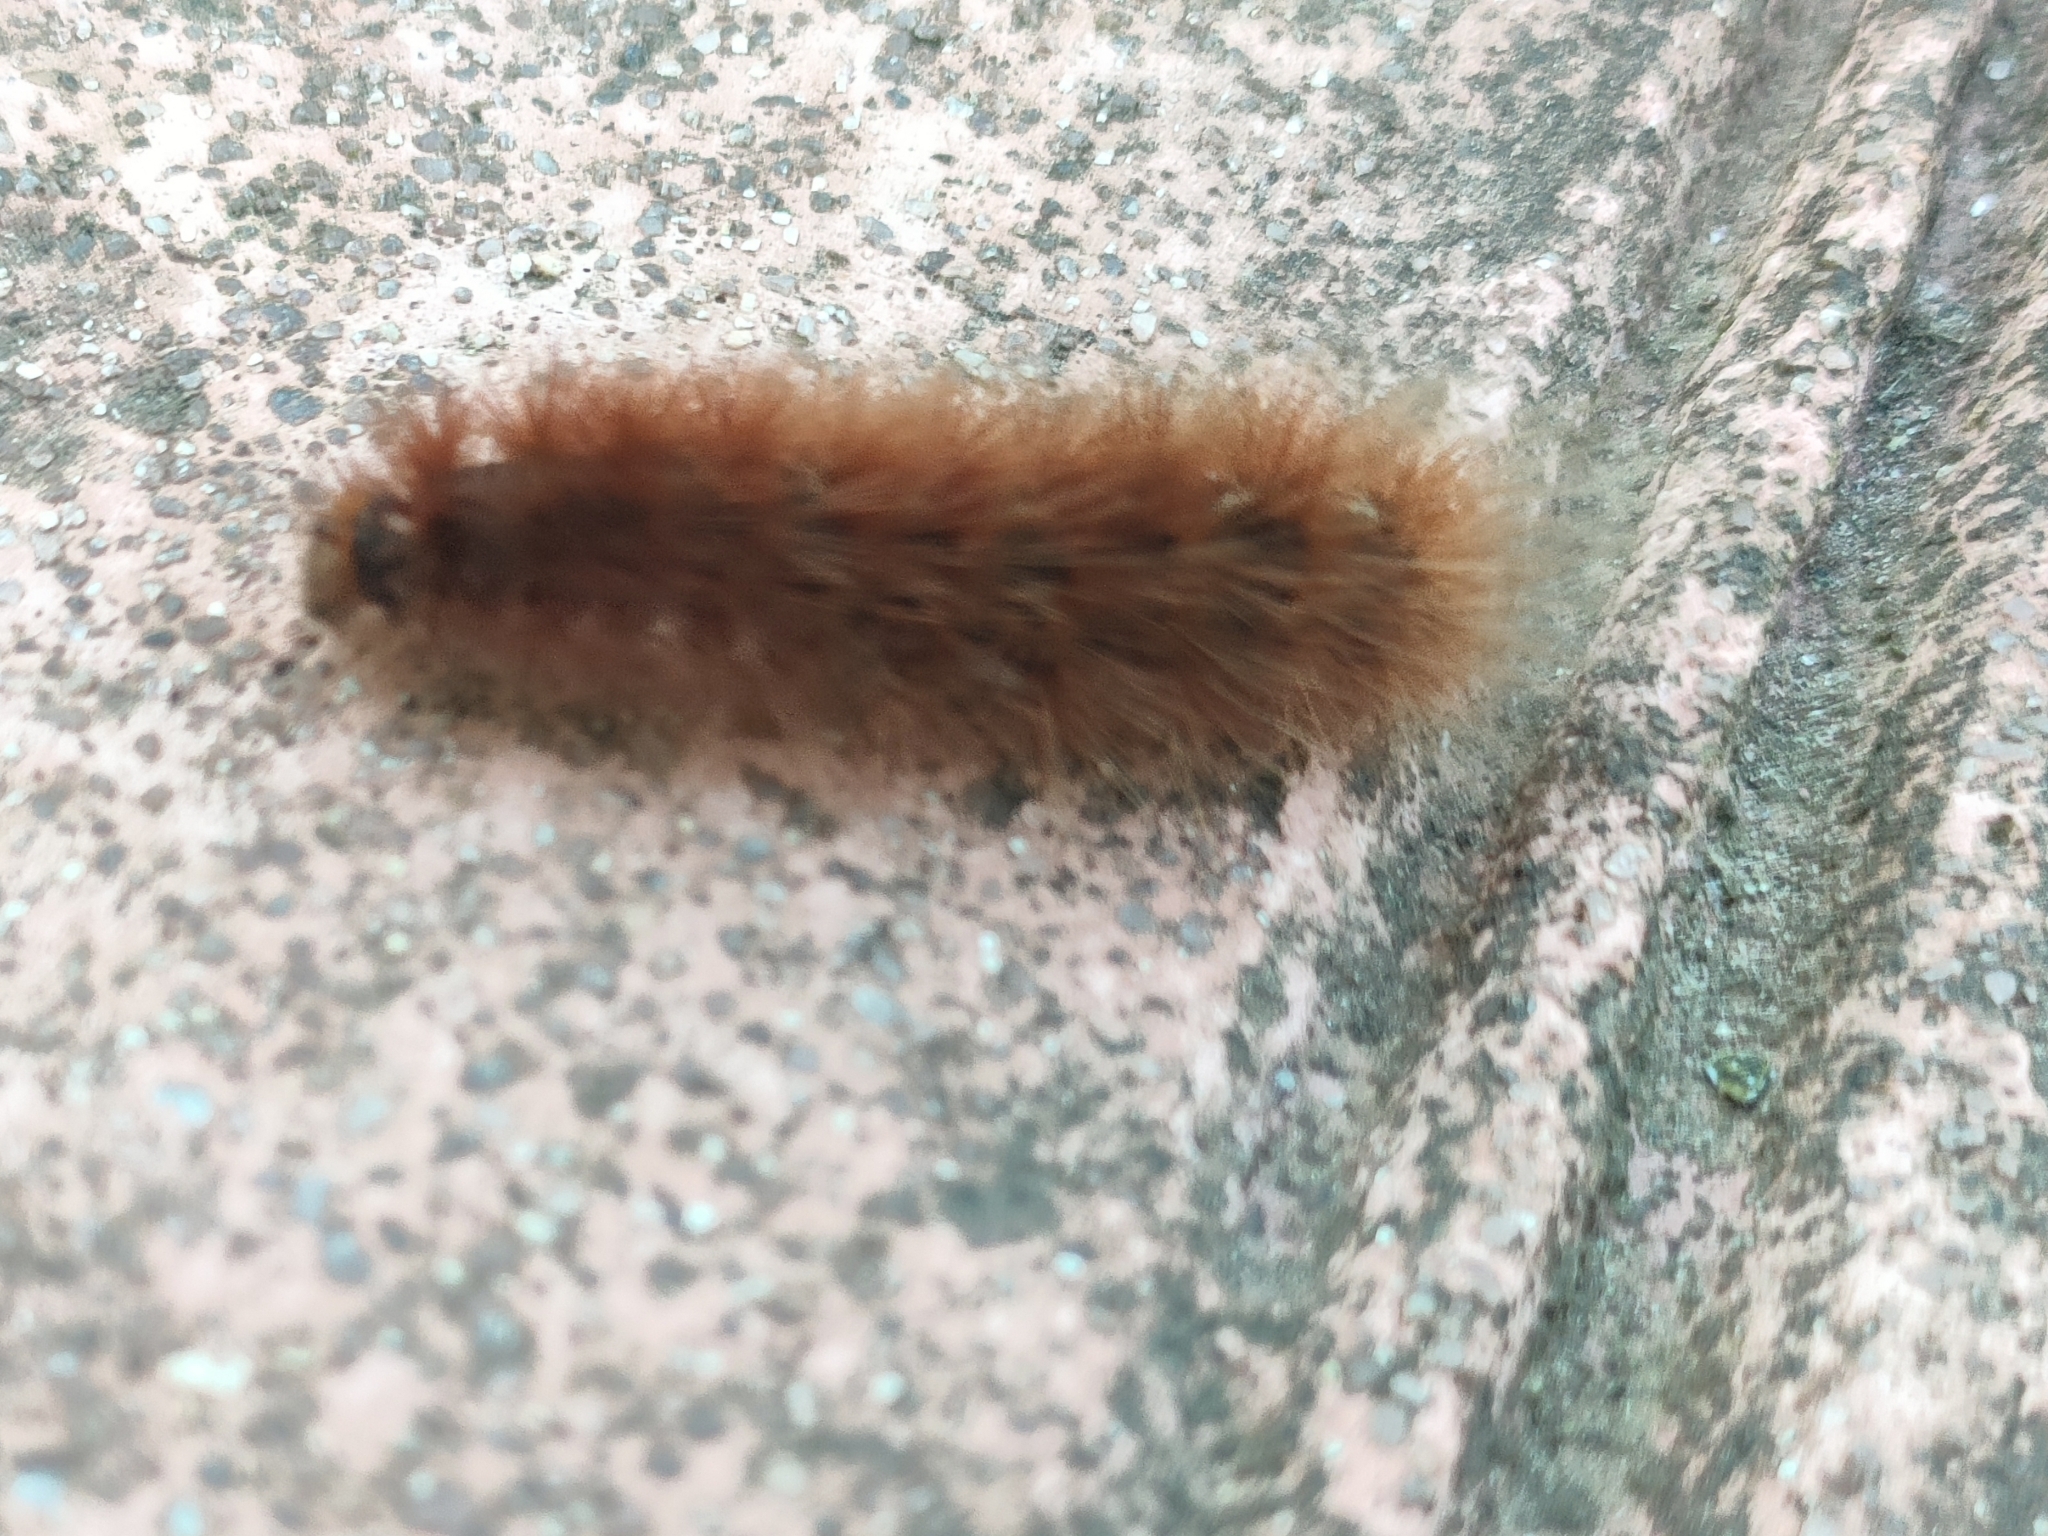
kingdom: Animalia
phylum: Arthropoda
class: Insecta
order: Lepidoptera
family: Erebidae
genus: Phragmatobia
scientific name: Phragmatobia fuliginosa
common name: Ruby tiger
